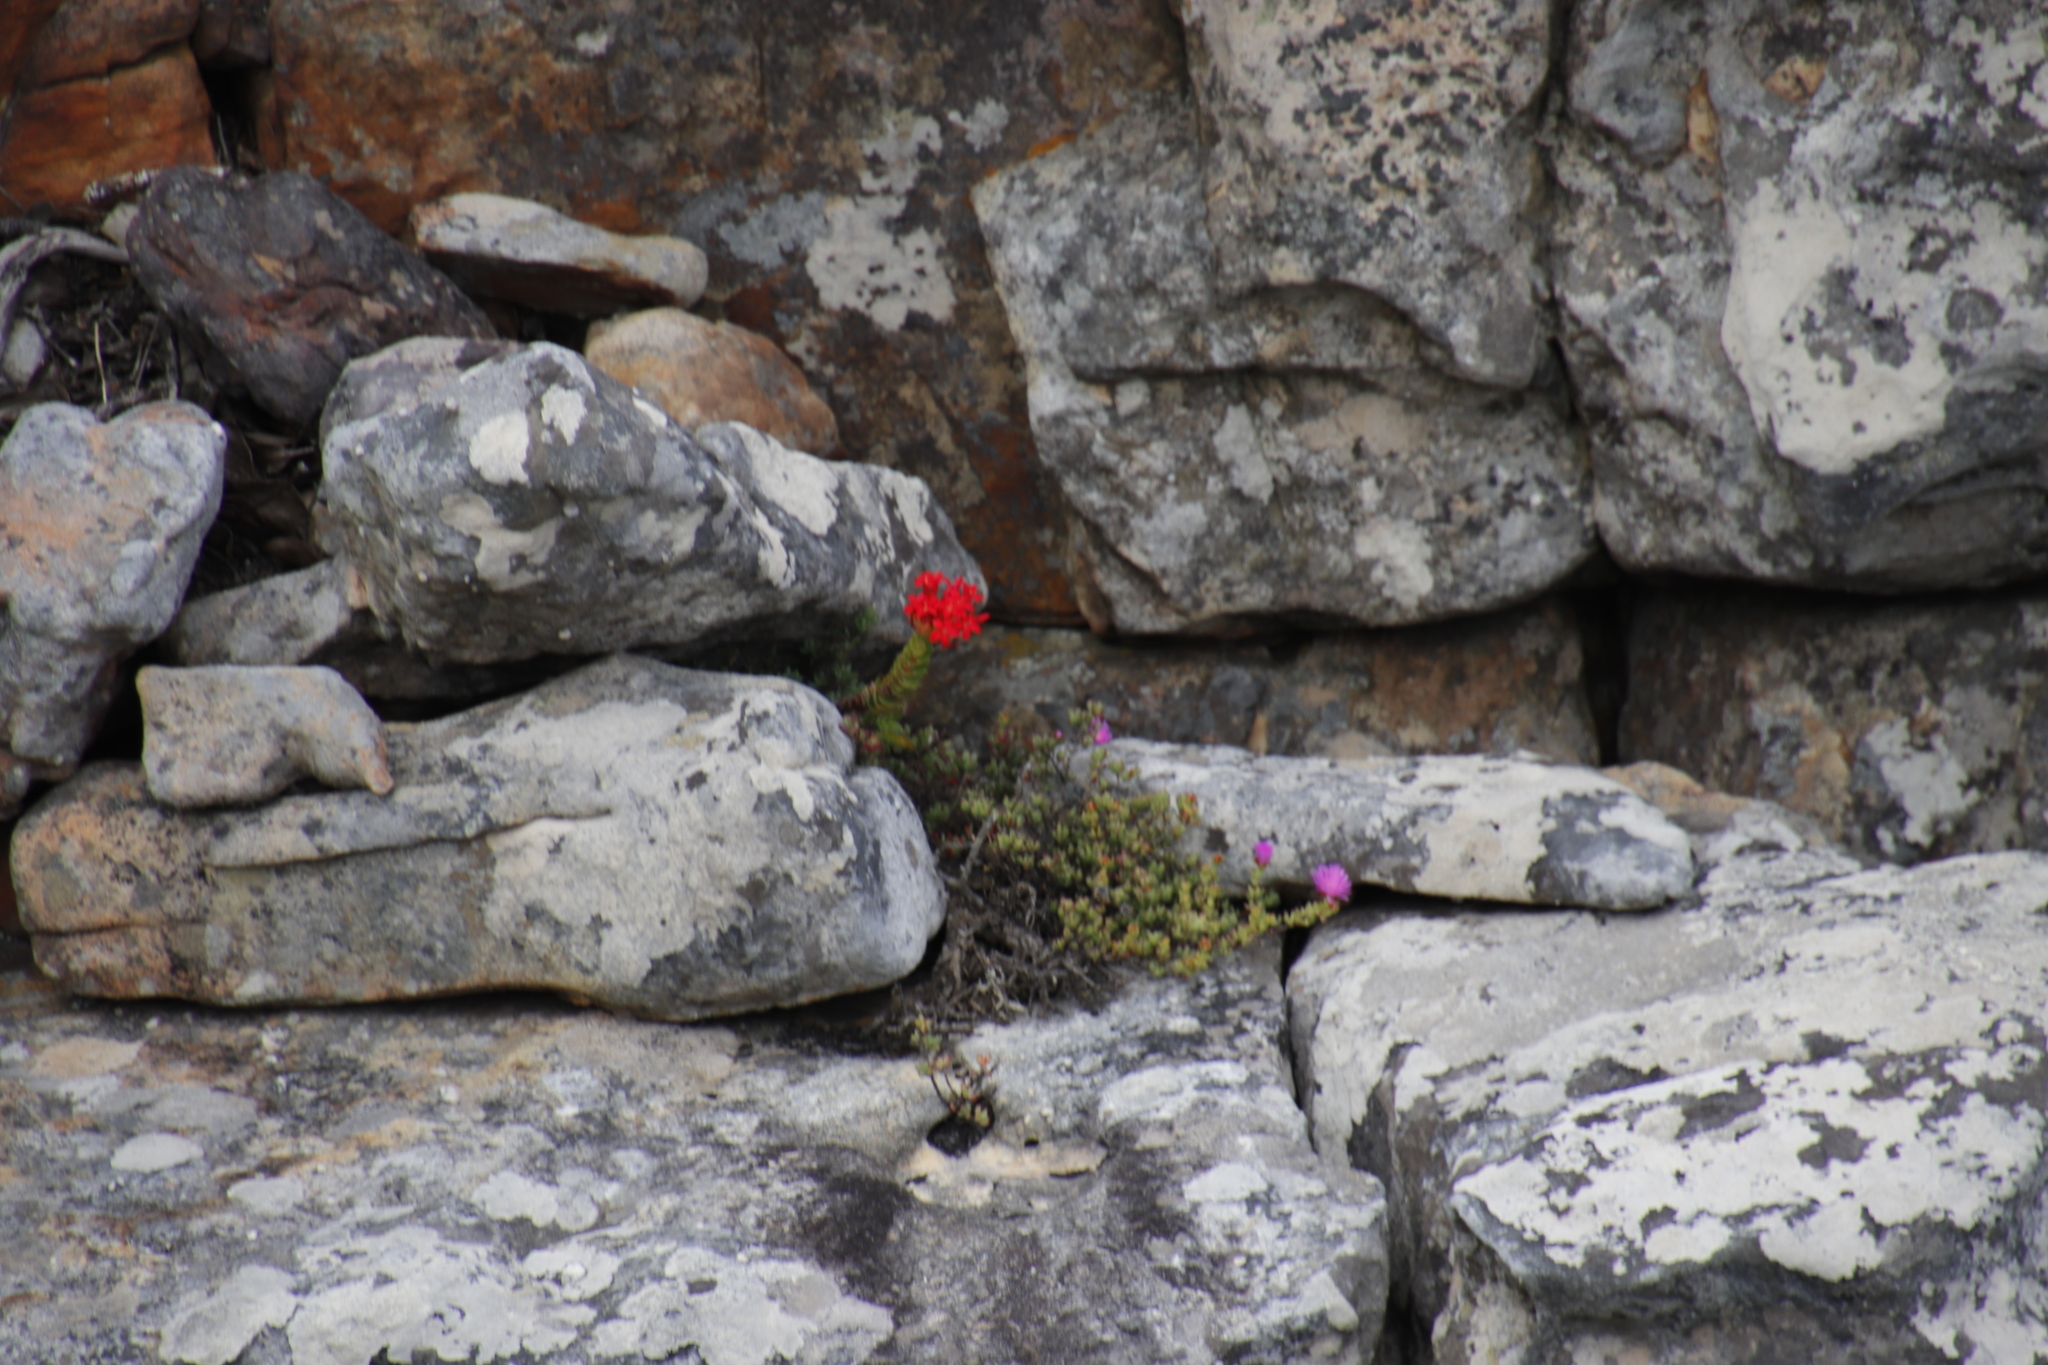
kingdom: Plantae
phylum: Tracheophyta
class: Magnoliopsida
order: Saxifragales
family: Crassulaceae
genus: Crassula
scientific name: Crassula coccinea
